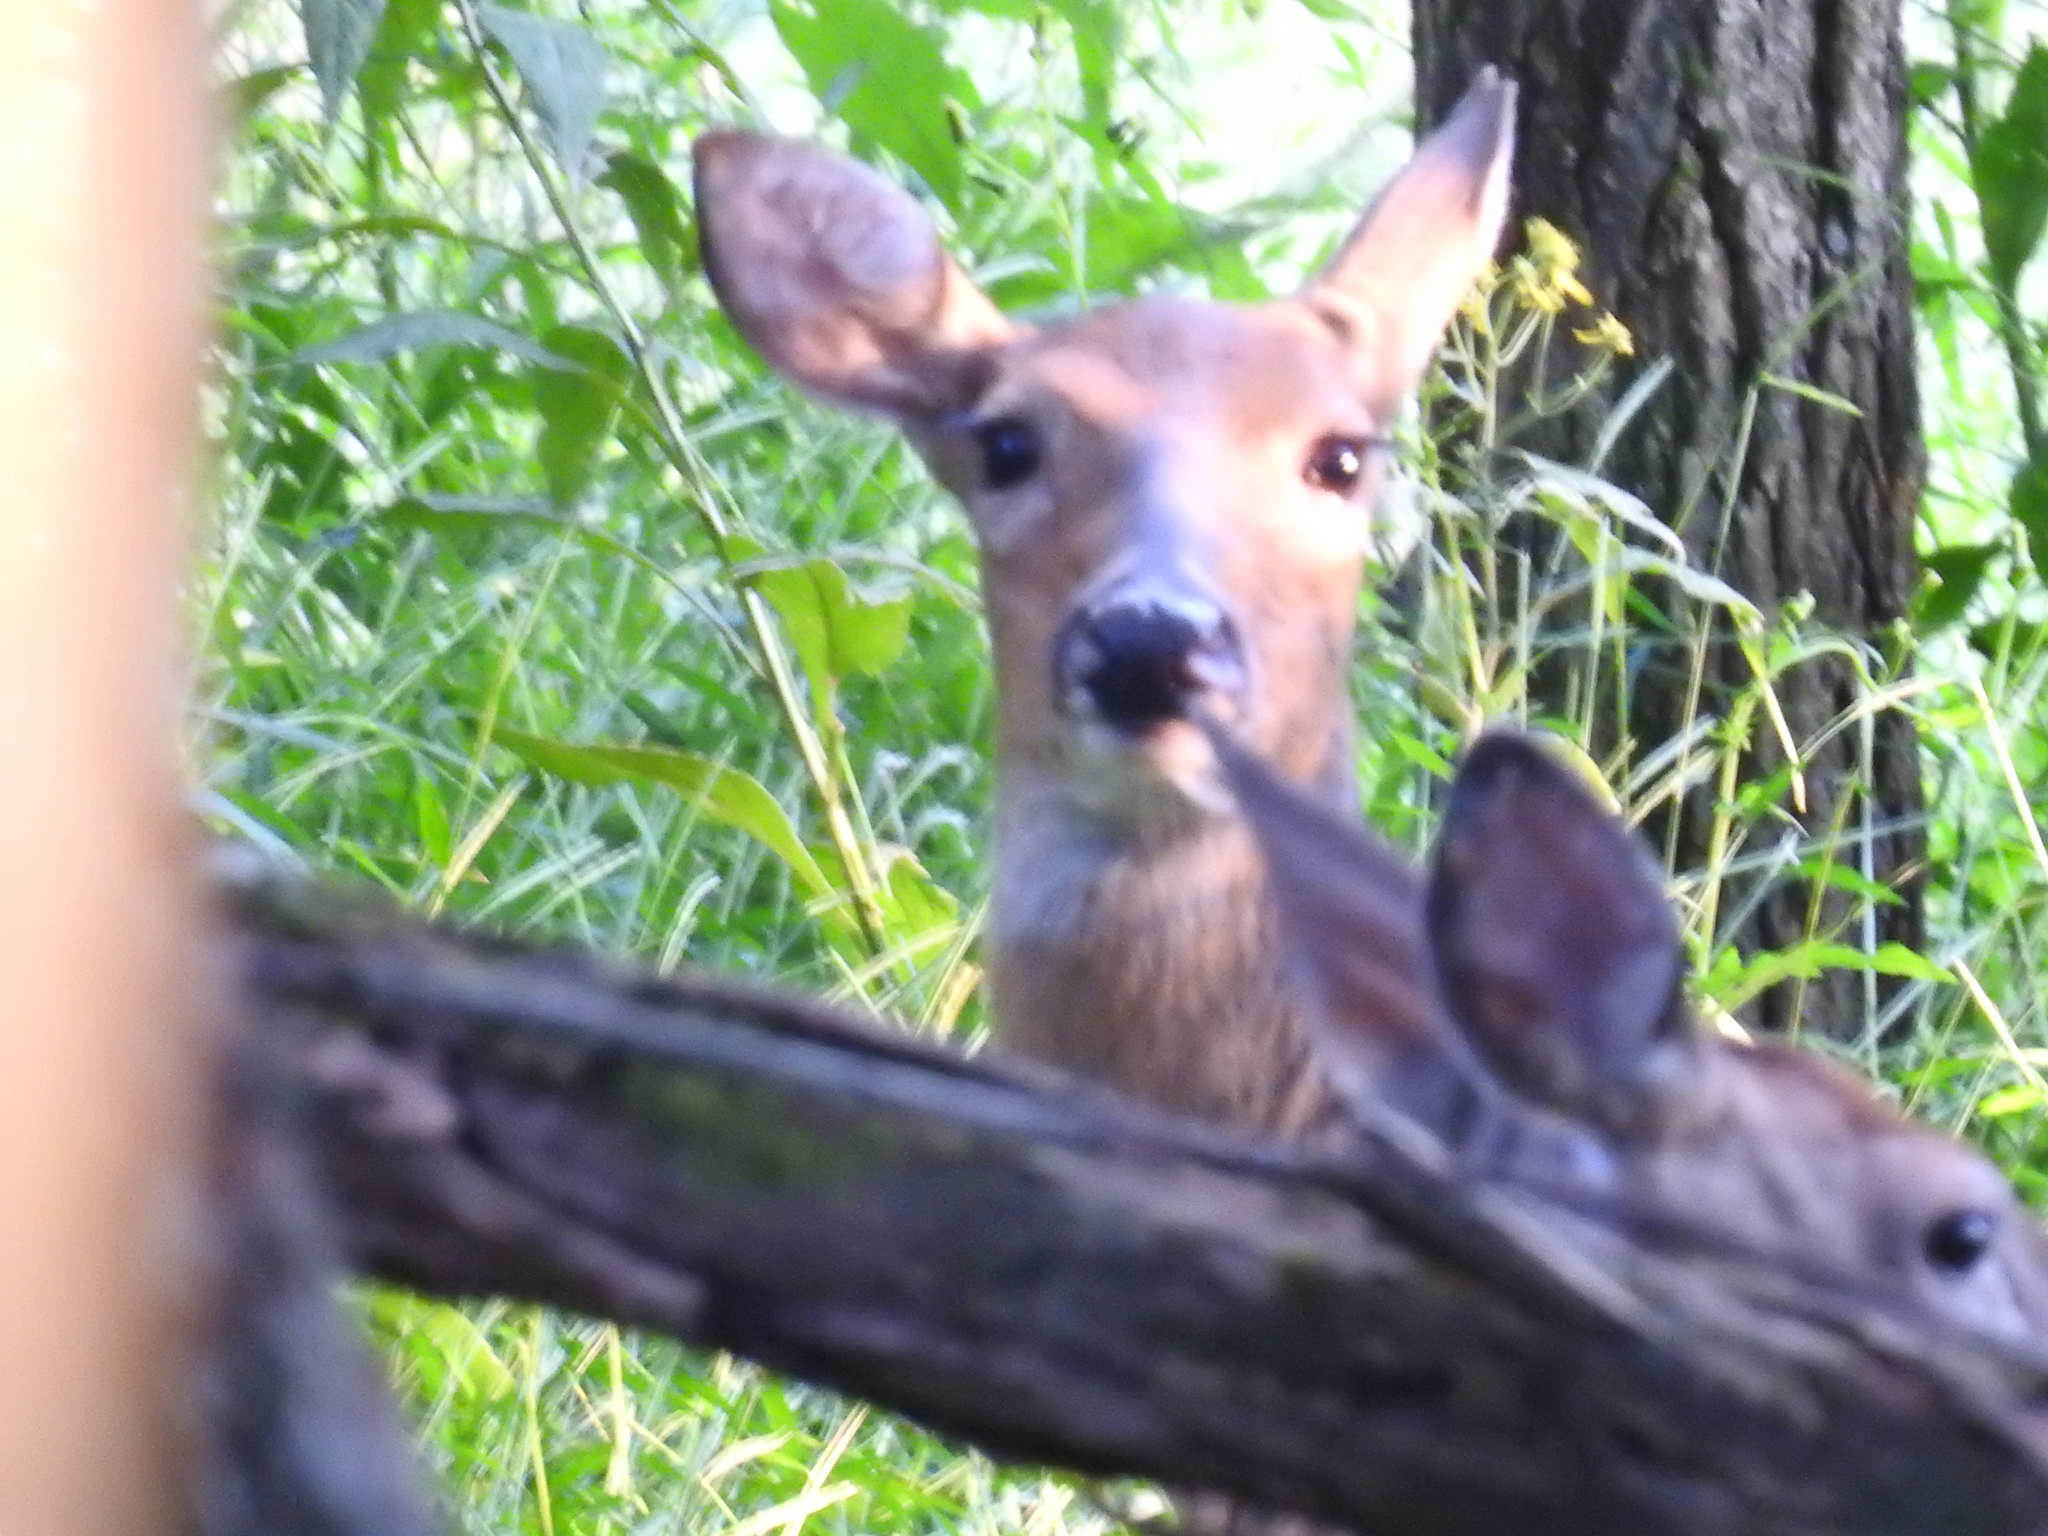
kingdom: Animalia
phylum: Chordata
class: Mammalia
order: Artiodactyla
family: Cervidae
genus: Odocoileus
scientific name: Odocoileus virginianus
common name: White-tailed deer
